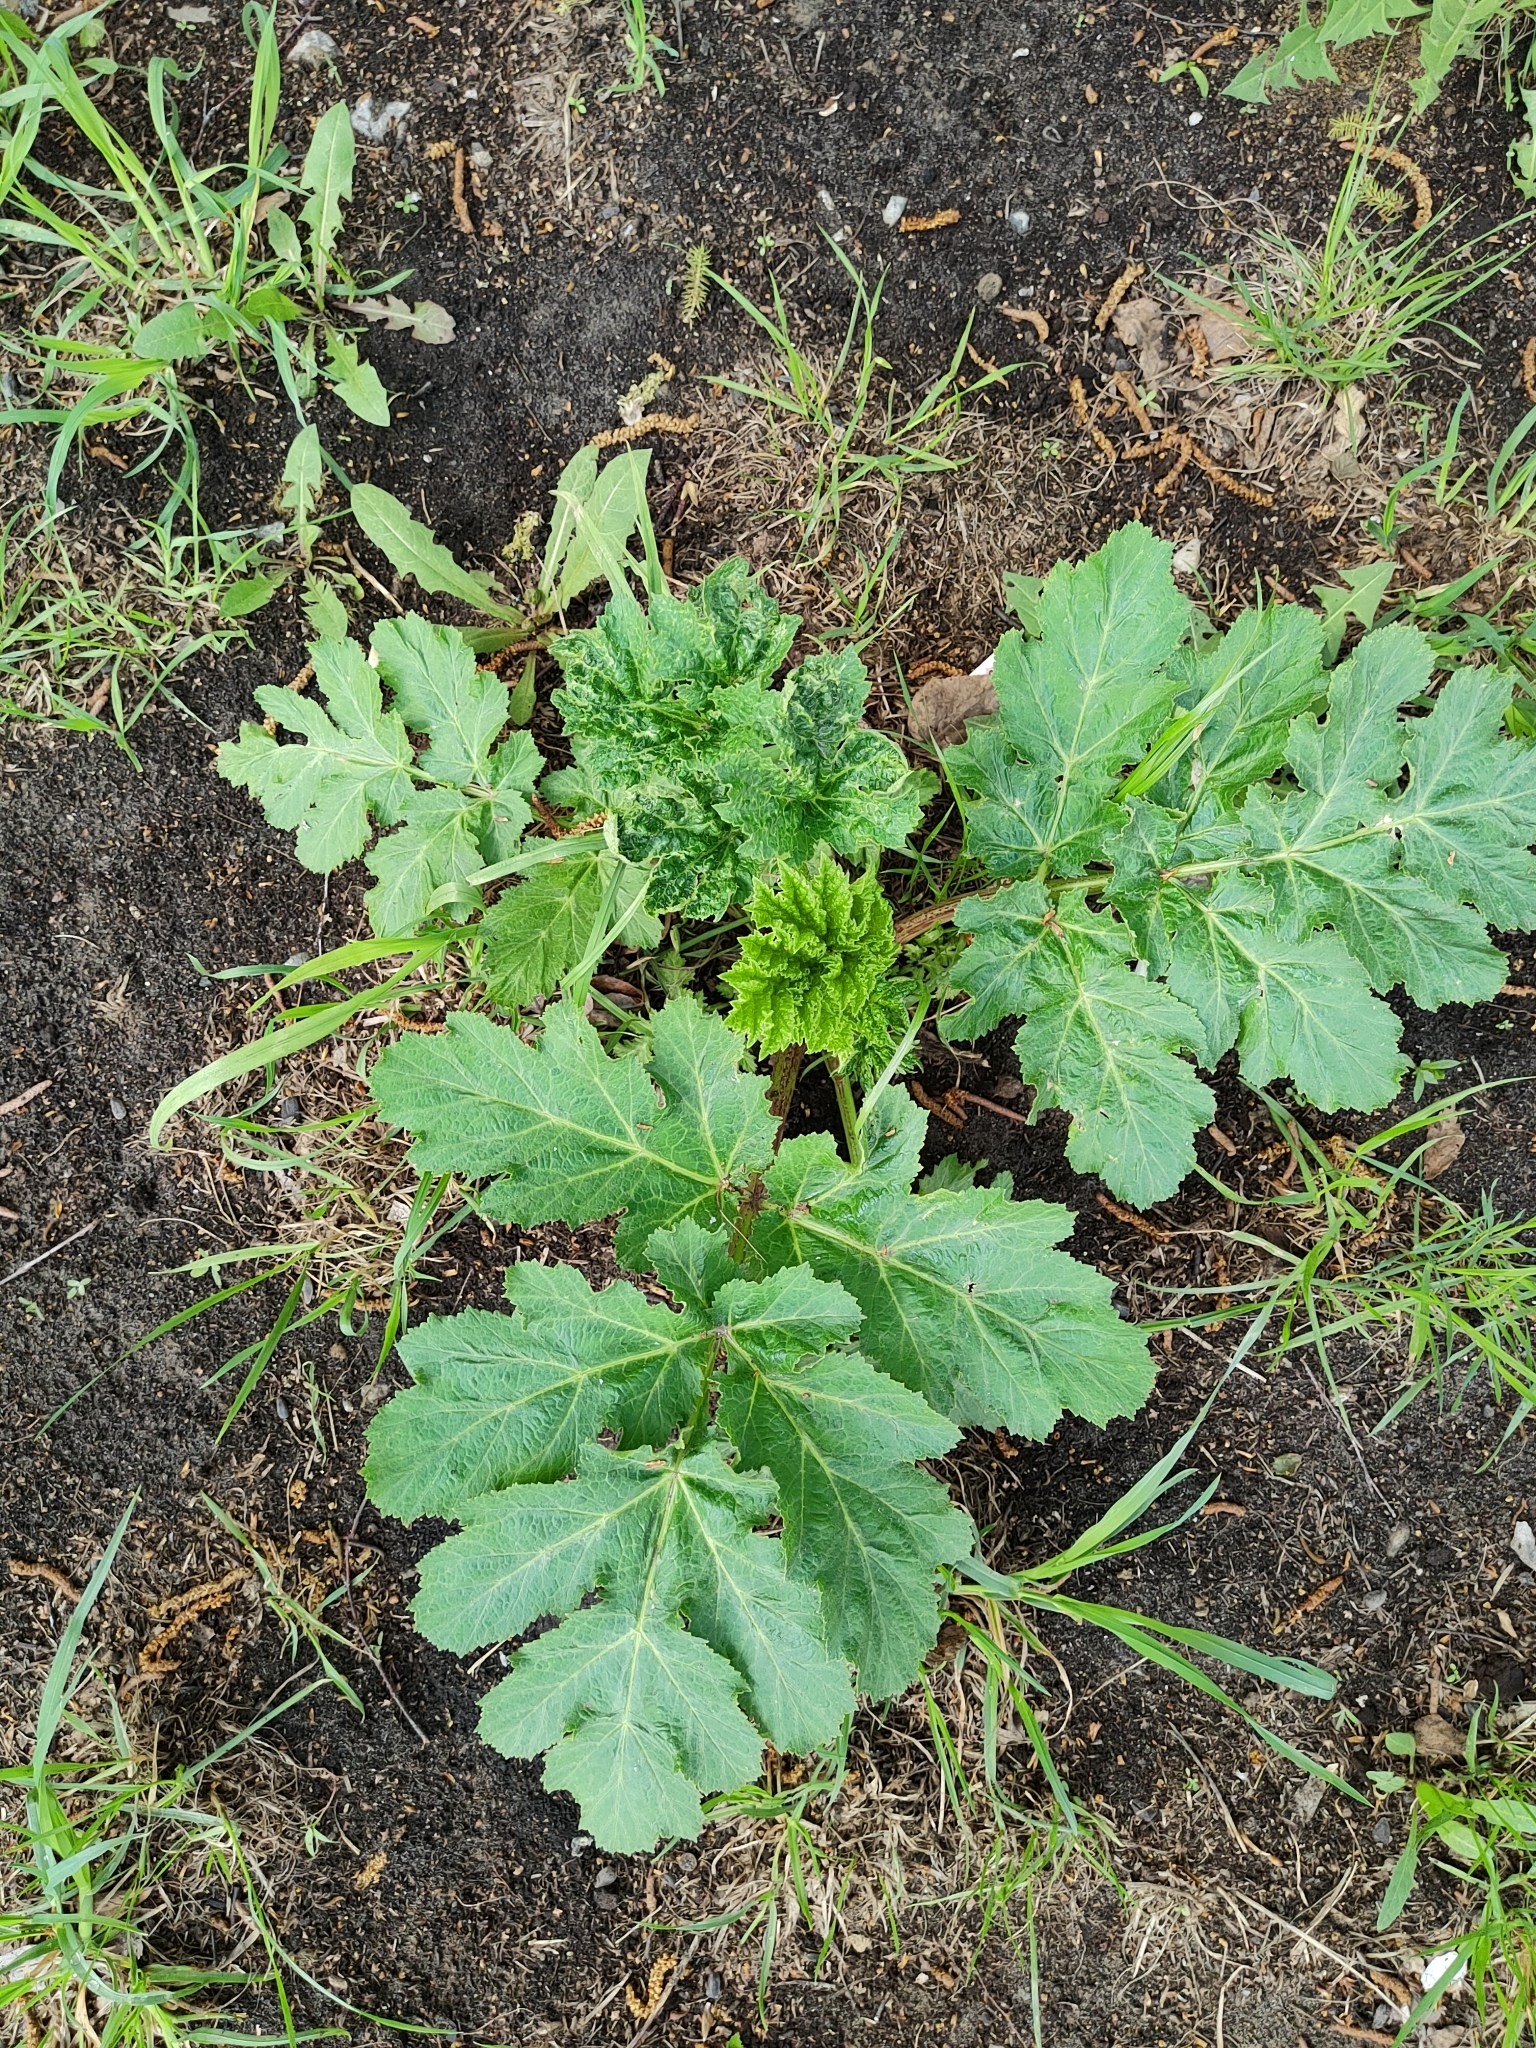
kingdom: Plantae
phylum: Tracheophyta
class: Magnoliopsida
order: Apiales
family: Apiaceae
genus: Heracleum
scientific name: Heracleum sosnowskyi
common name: Sosnowsky's hogweed
